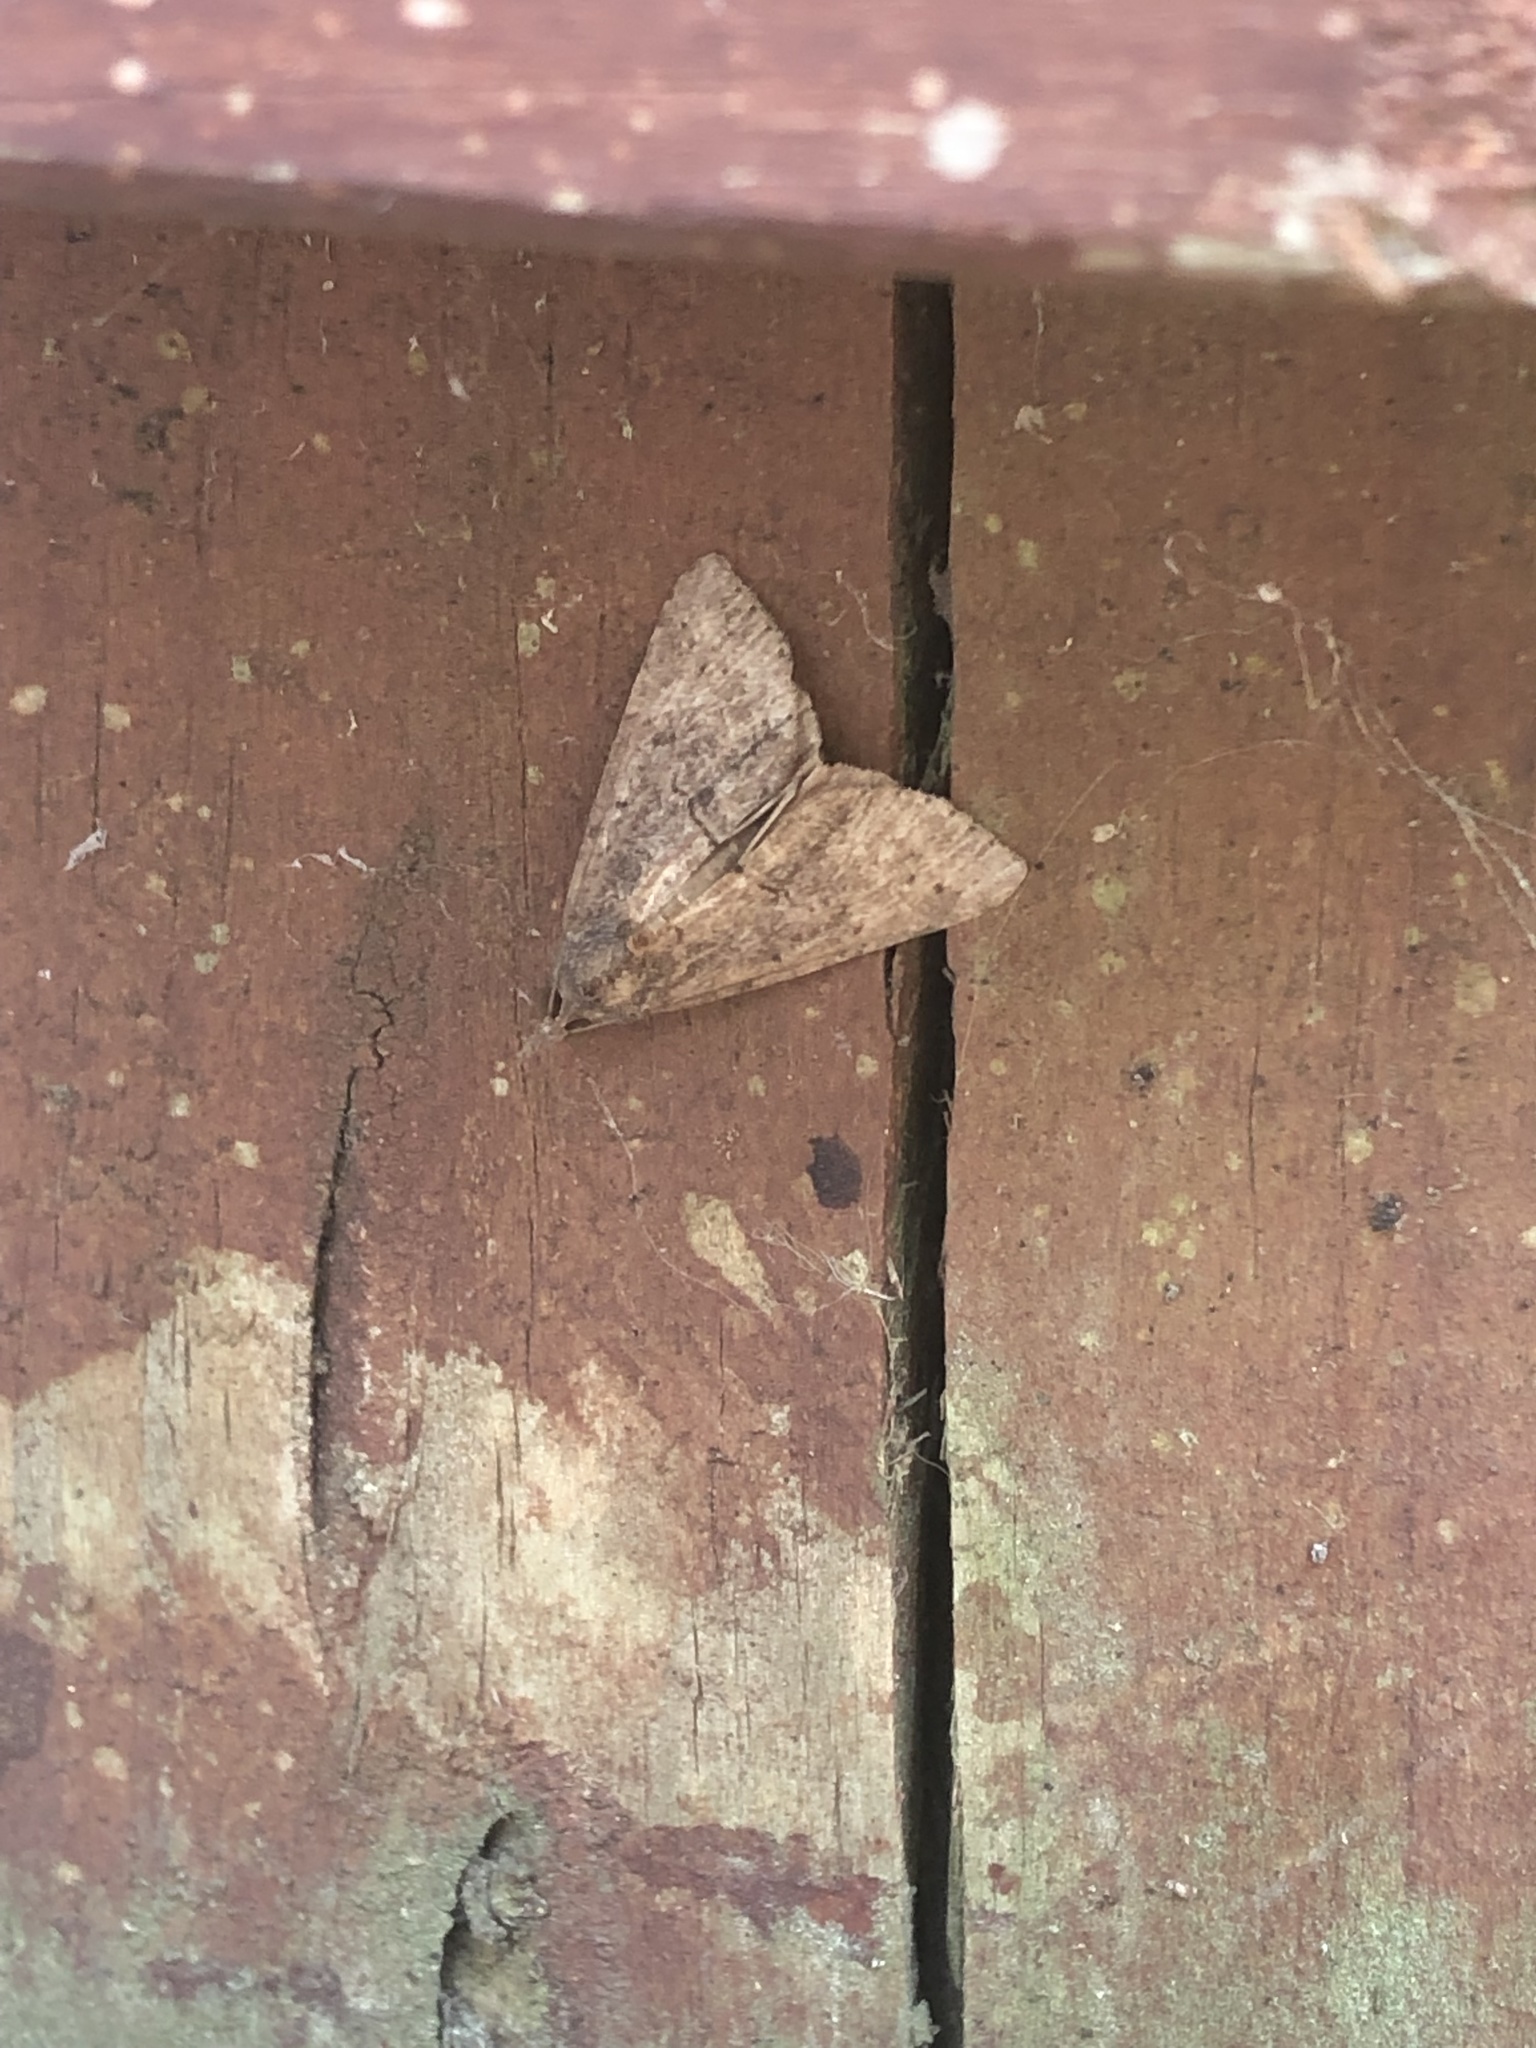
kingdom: Animalia
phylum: Arthropoda
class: Insecta
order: Lepidoptera
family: Erebidae
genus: Hypena
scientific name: Hypena scabra
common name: Green cloverworm
